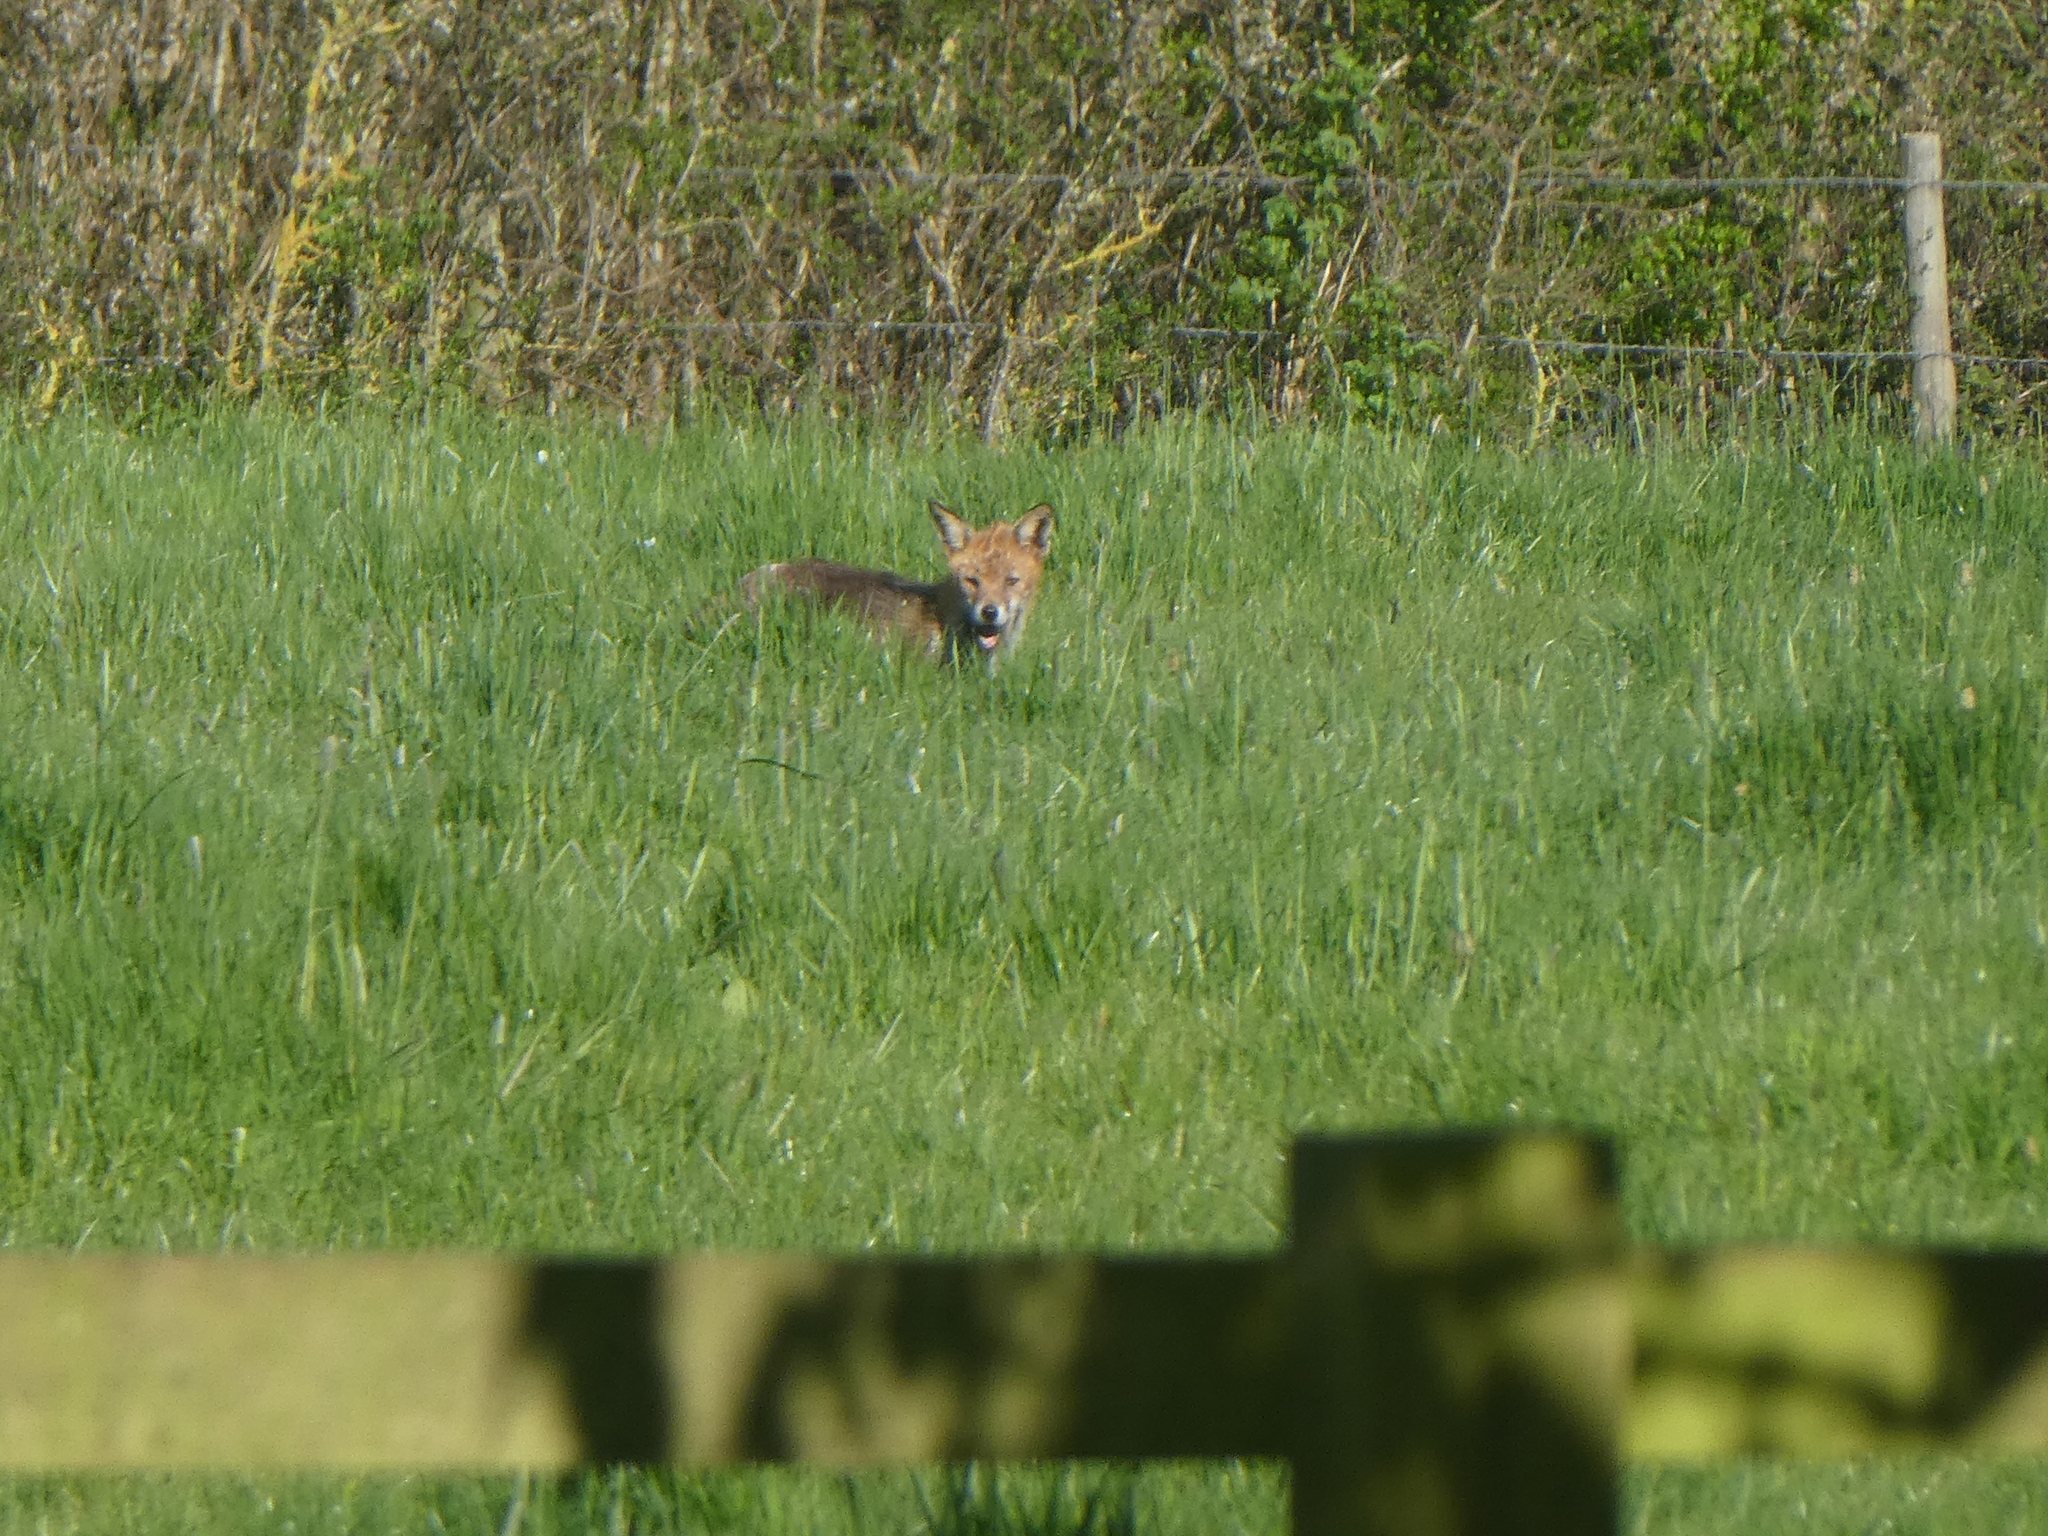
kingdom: Animalia
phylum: Chordata
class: Mammalia
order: Carnivora
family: Canidae
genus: Vulpes
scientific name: Vulpes vulpes
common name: Red fox
